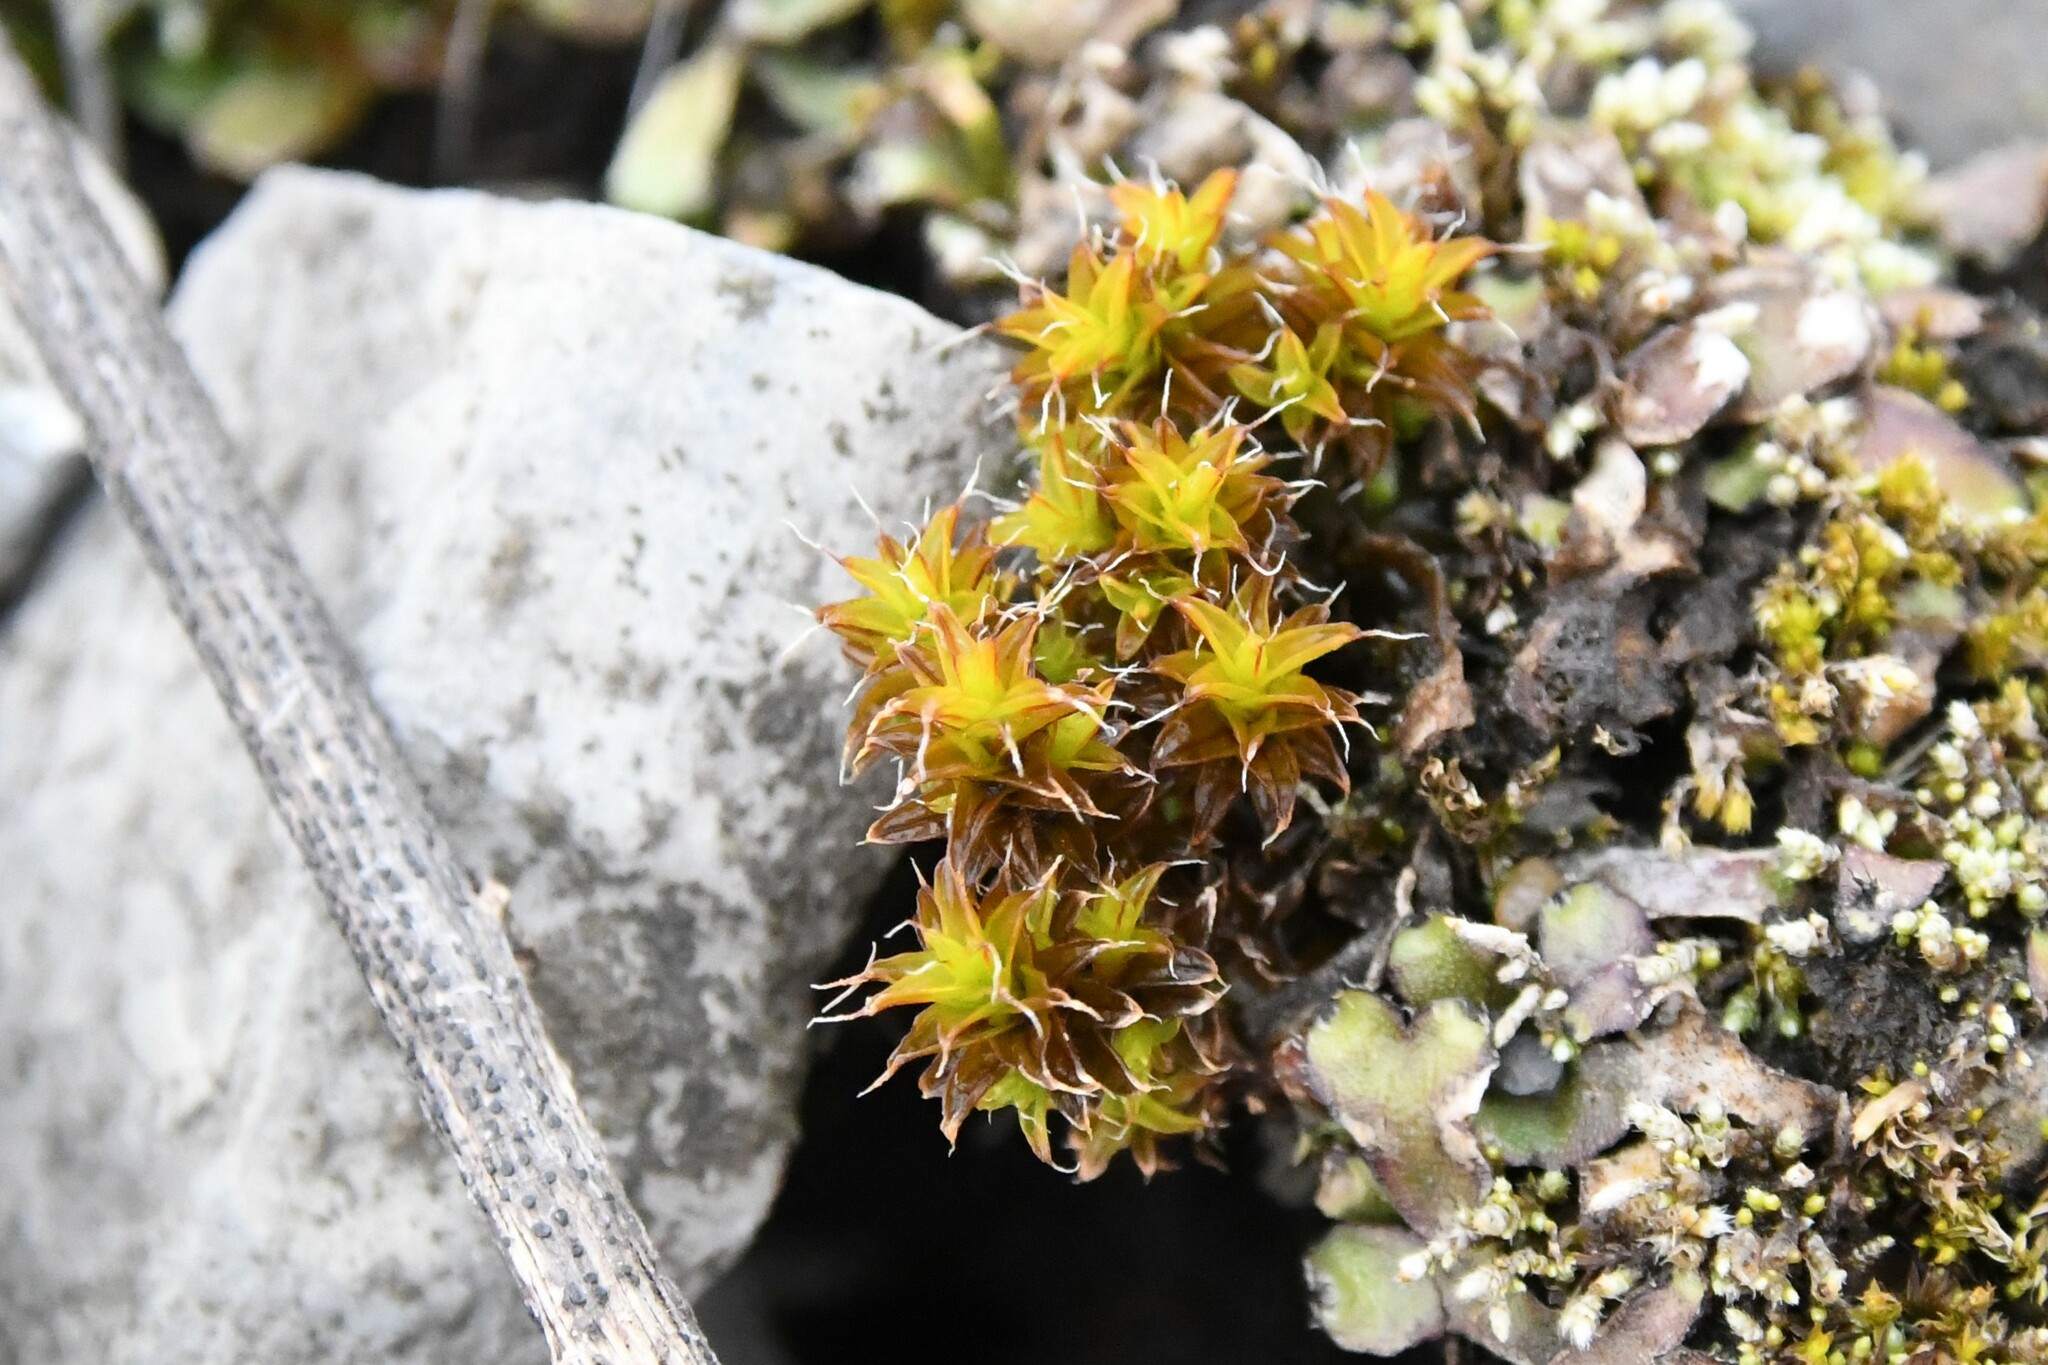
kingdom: Plantae
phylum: Bryophyta
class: Bryopsida
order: Pottiales
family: Pottiaceae
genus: Syntrichia
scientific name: Syntrichia
